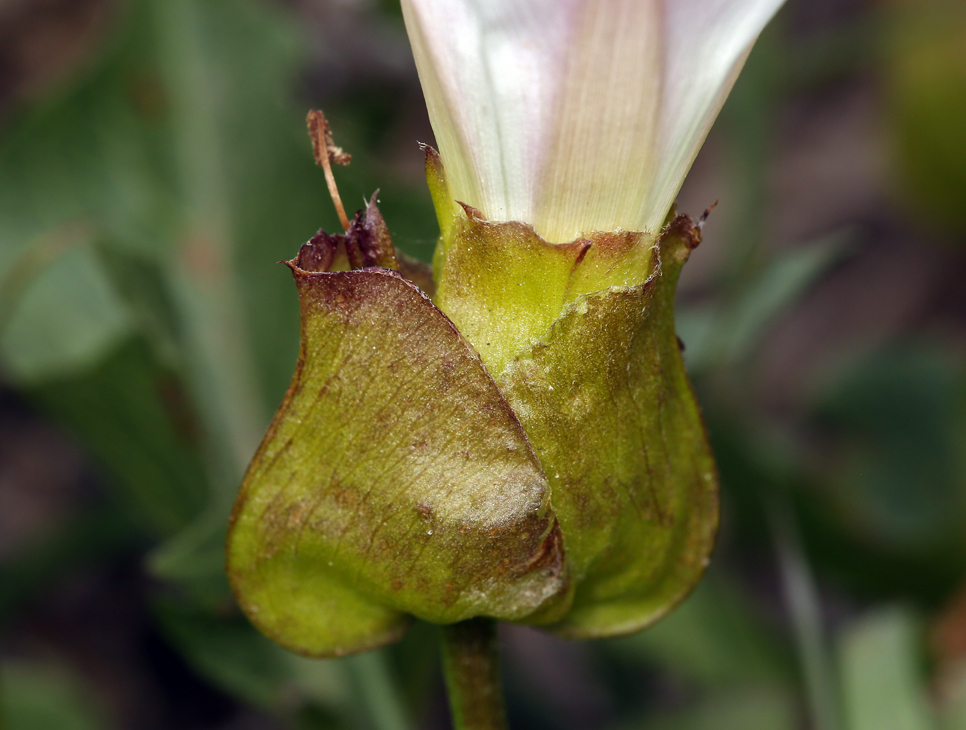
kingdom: Plantae
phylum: Tracheophyta
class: Magnoliopsida
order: Solanales
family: Convolvulaceae
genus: Calystegia
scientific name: Calystegia macrostegia
